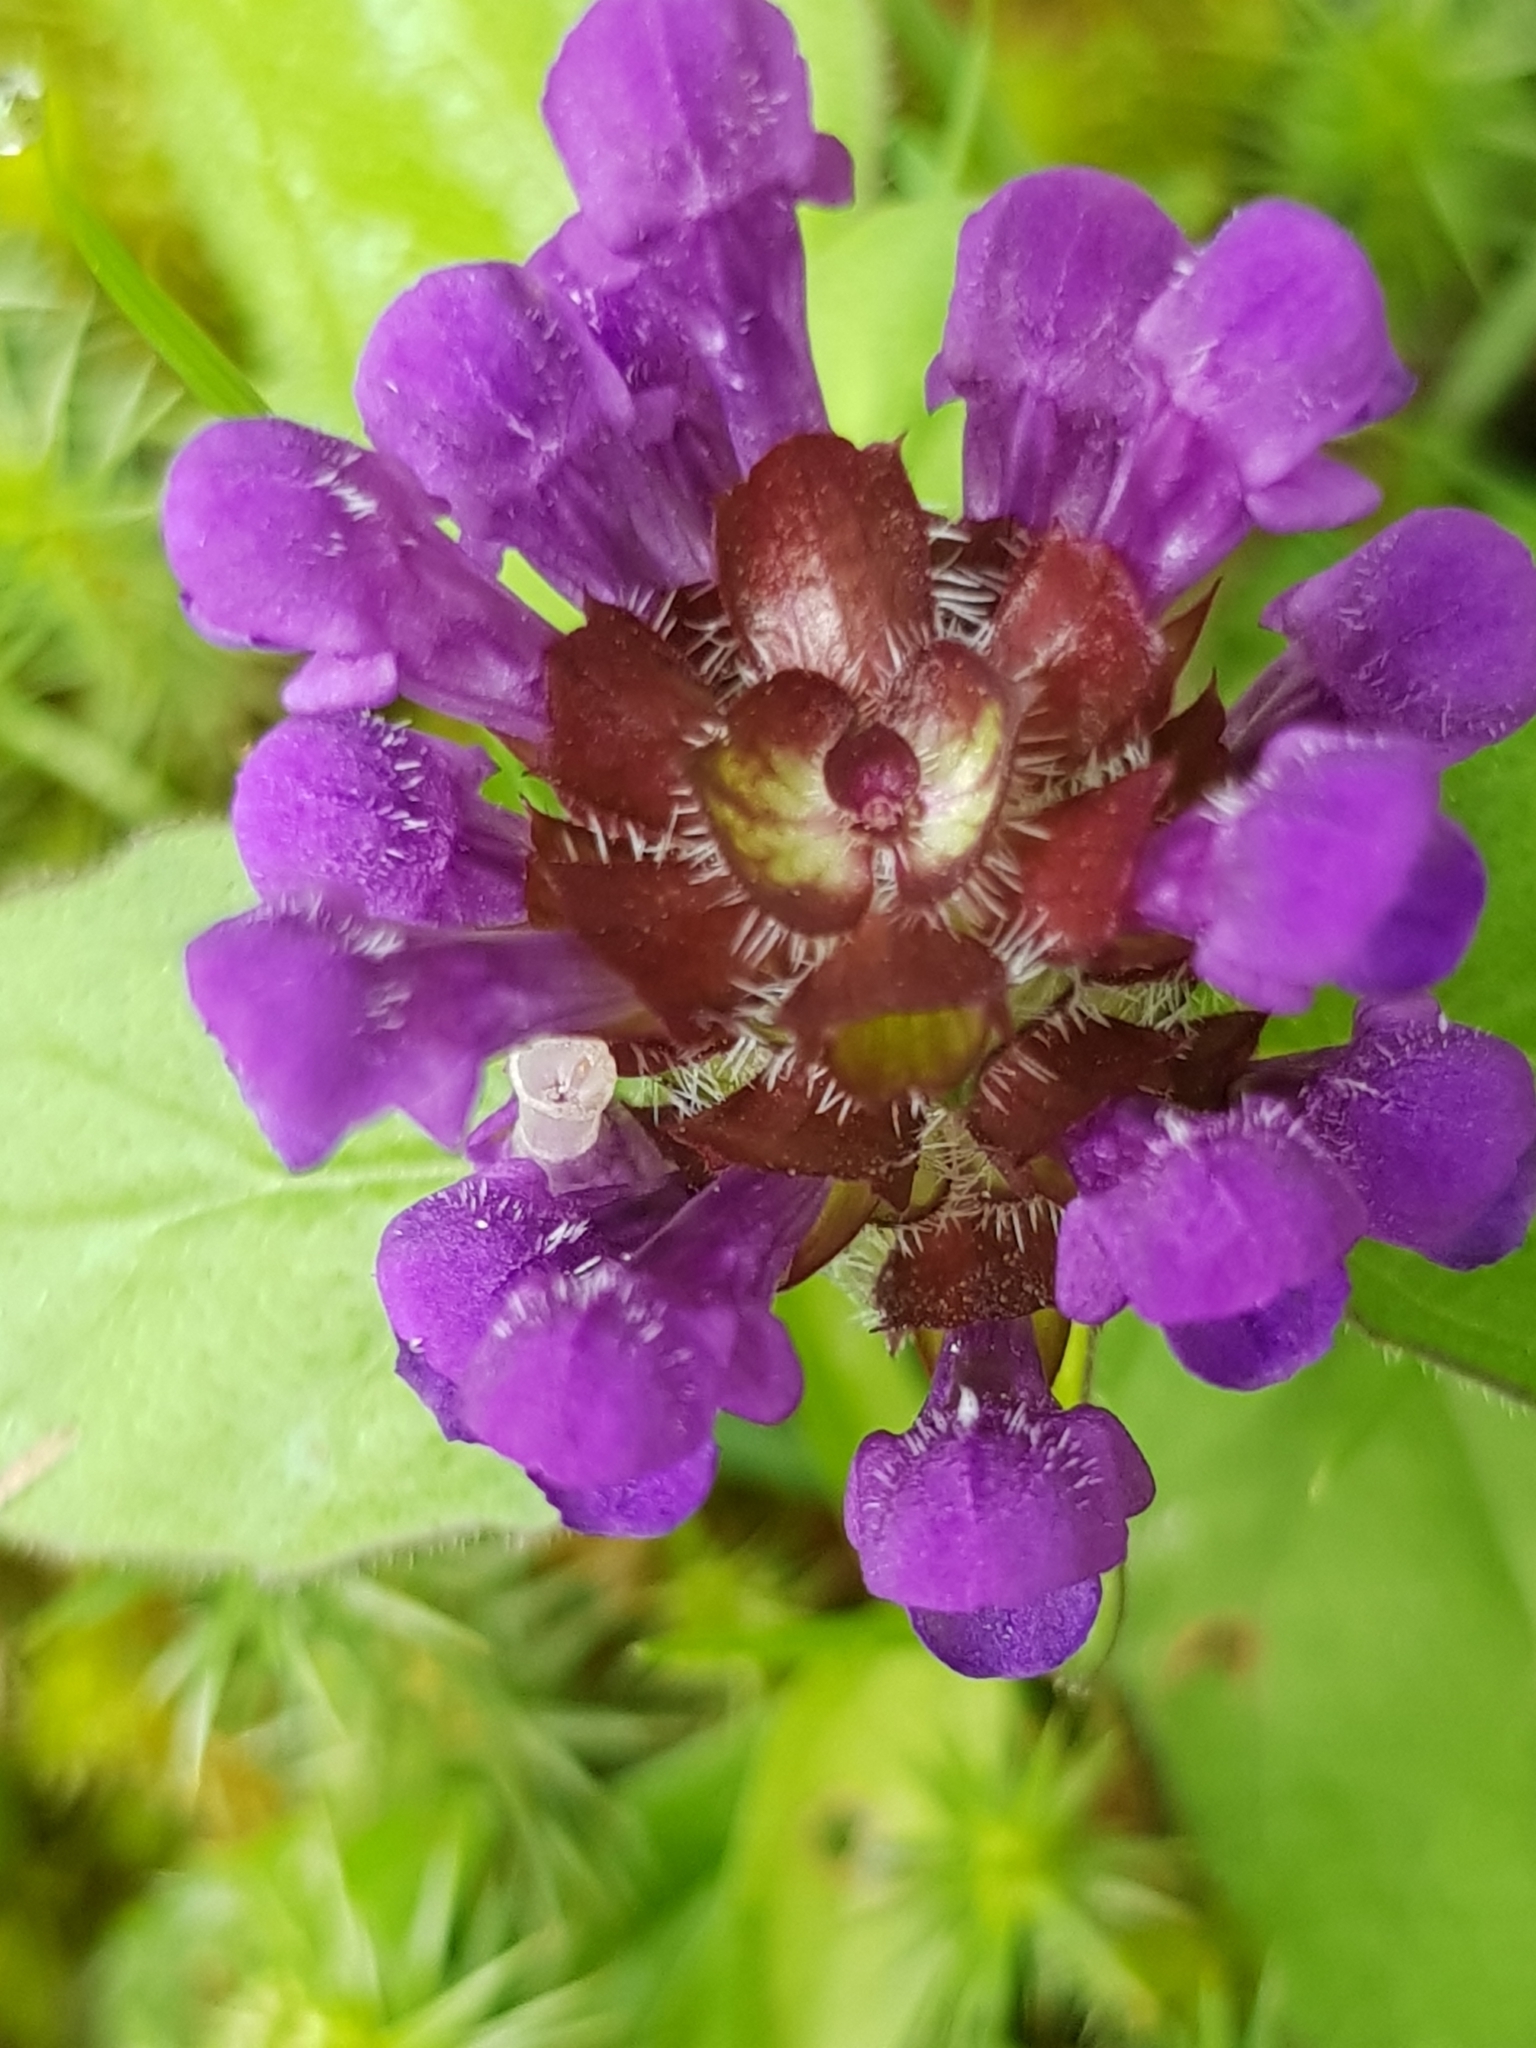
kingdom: Plantae
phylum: Tracheophyta
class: Magnoliopsida
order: Lamiales
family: Lamiaceae
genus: Prunella
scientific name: Prunella vulgaris
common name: Heal-all
